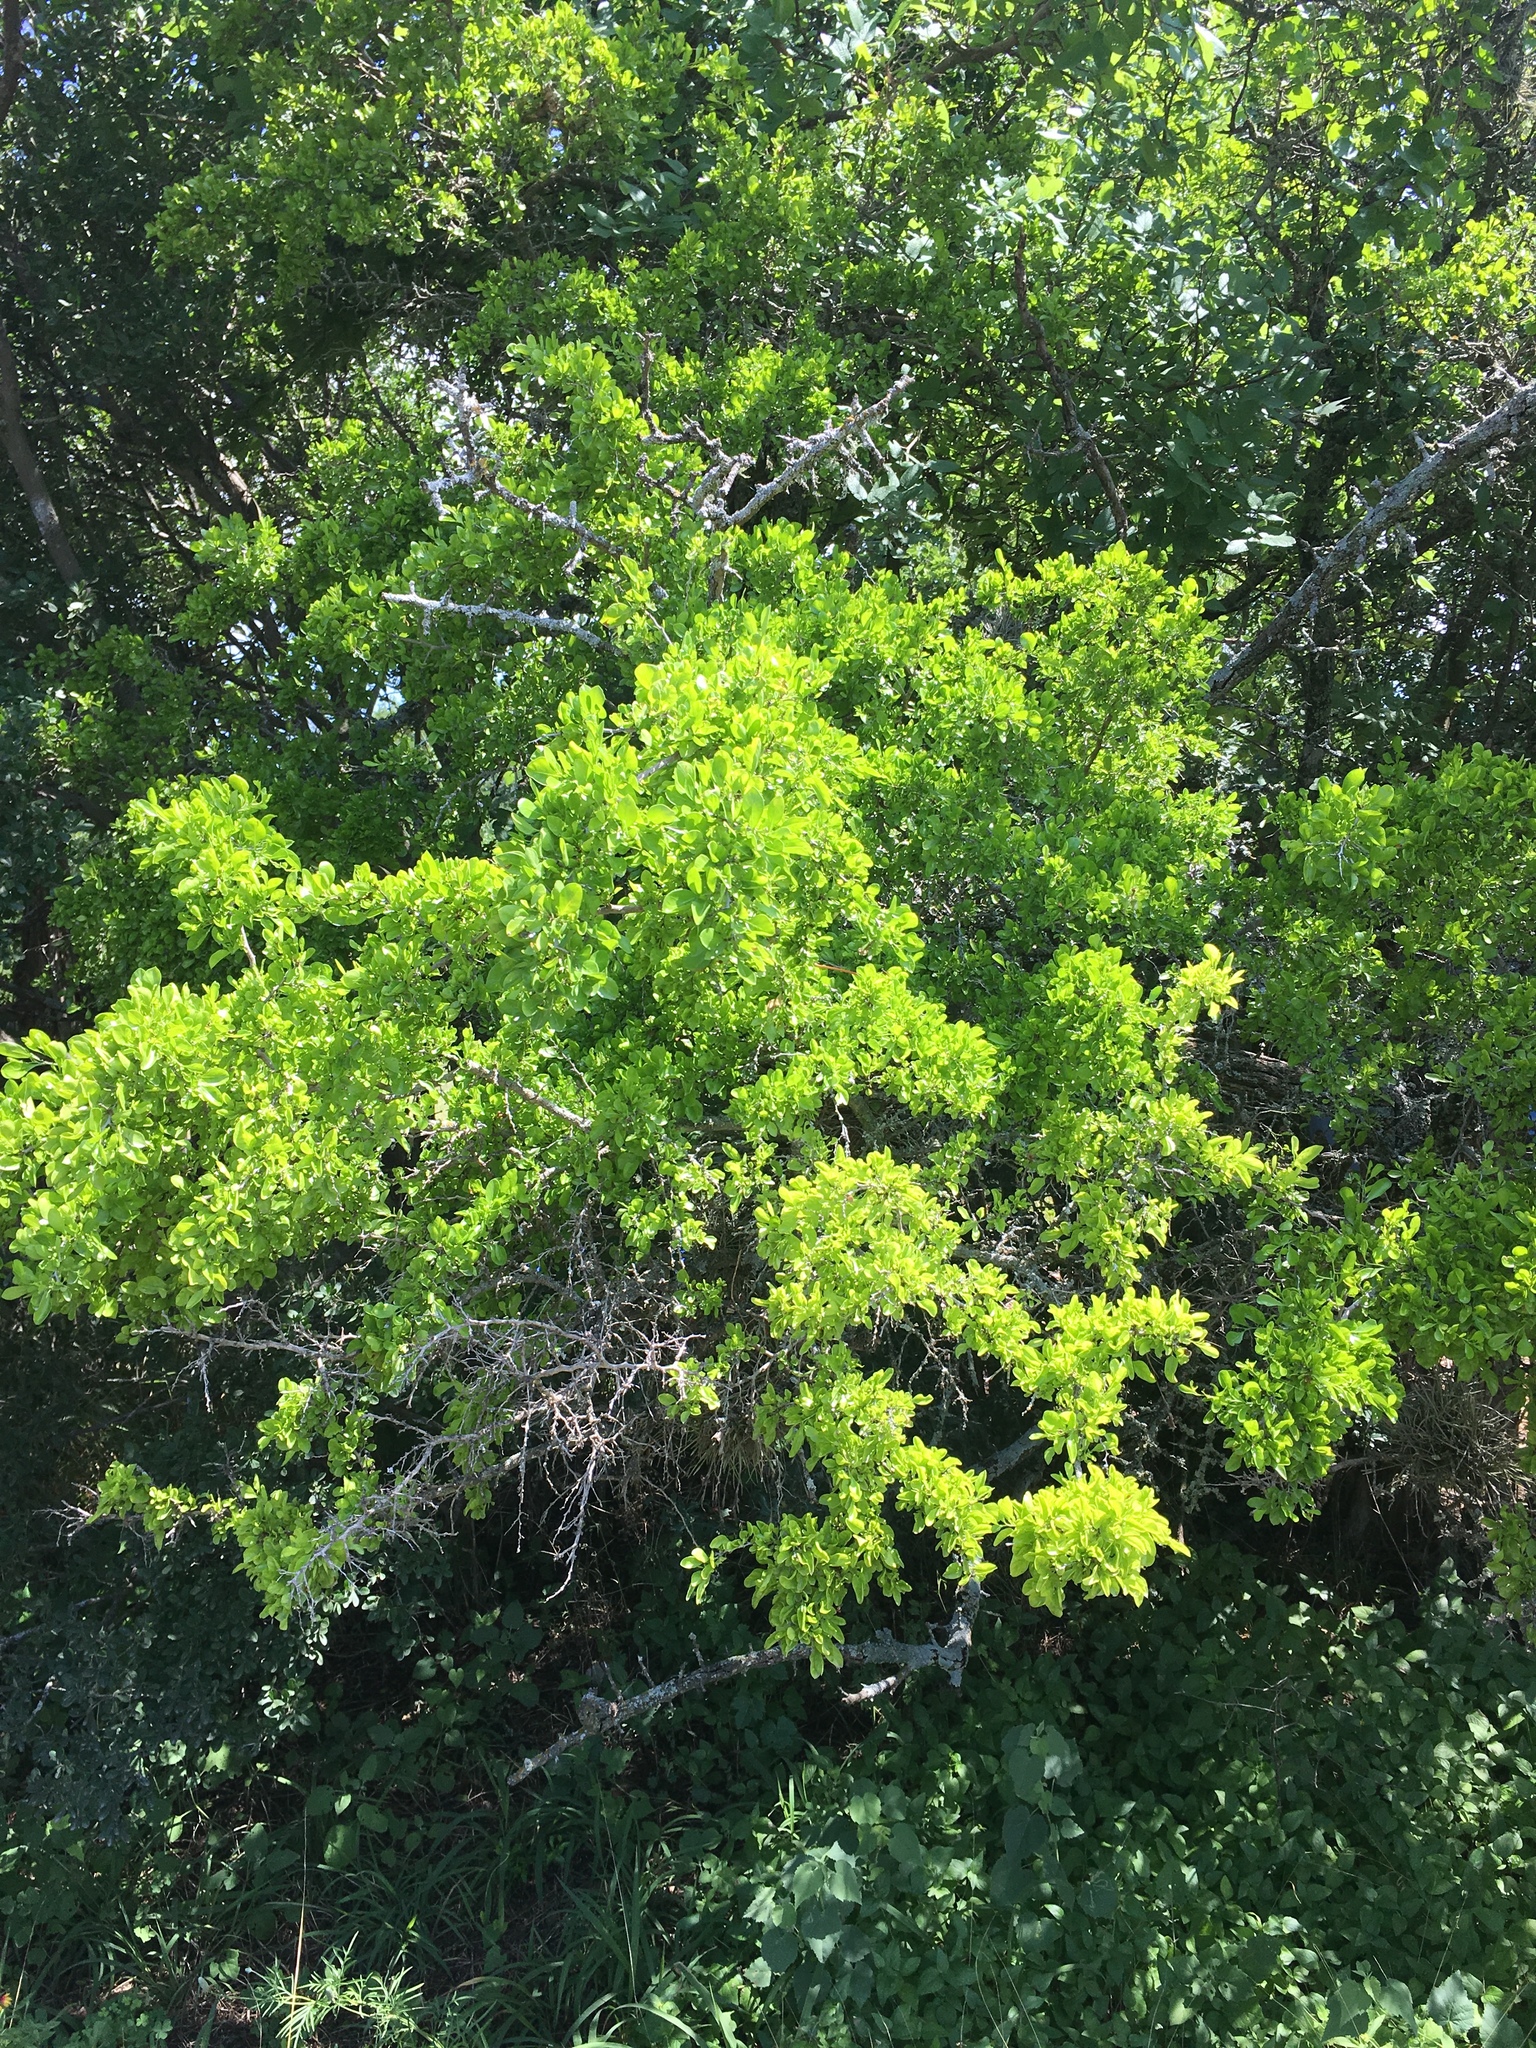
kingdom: Plantae
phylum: Tracheophyta
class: Magnoliopsida
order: Rosales
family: Rhamnaceae
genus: Condalia
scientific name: Condalia hookeri
